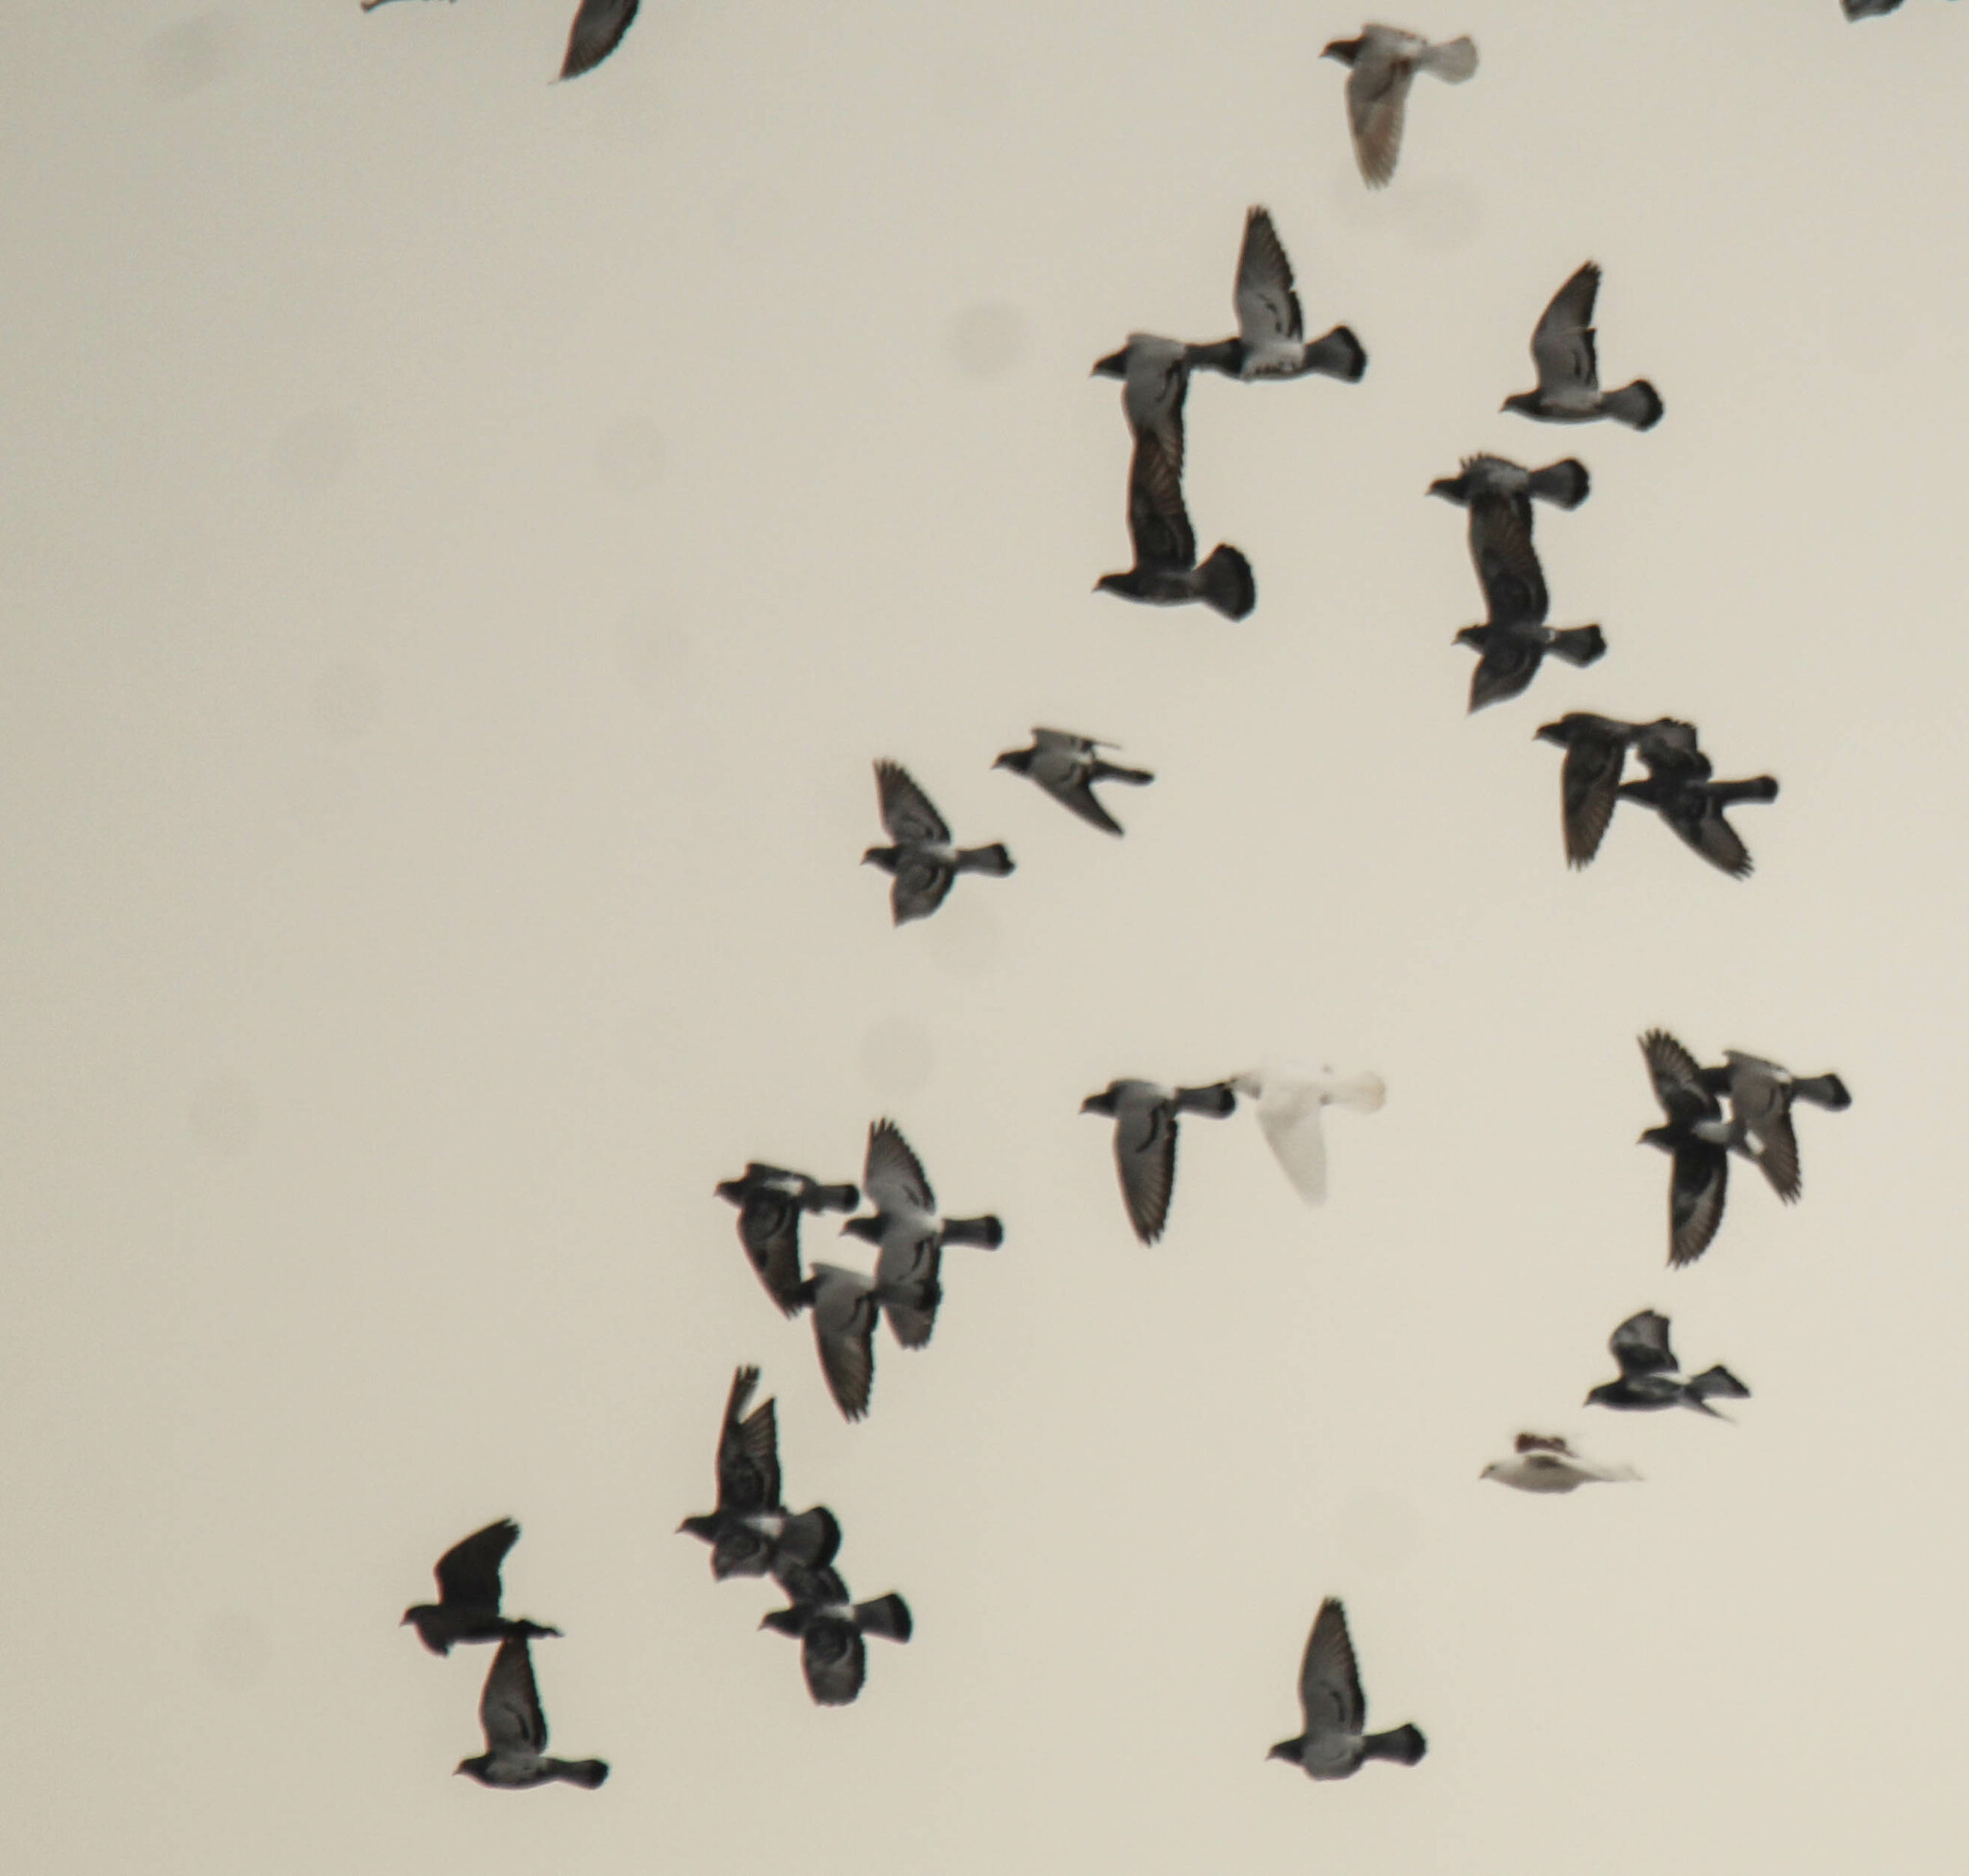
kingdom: Animalia
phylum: Chordata
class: Aves
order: Columbiformes
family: Columbidae
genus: Columba
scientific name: Columba livia
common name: Rock pigeon
